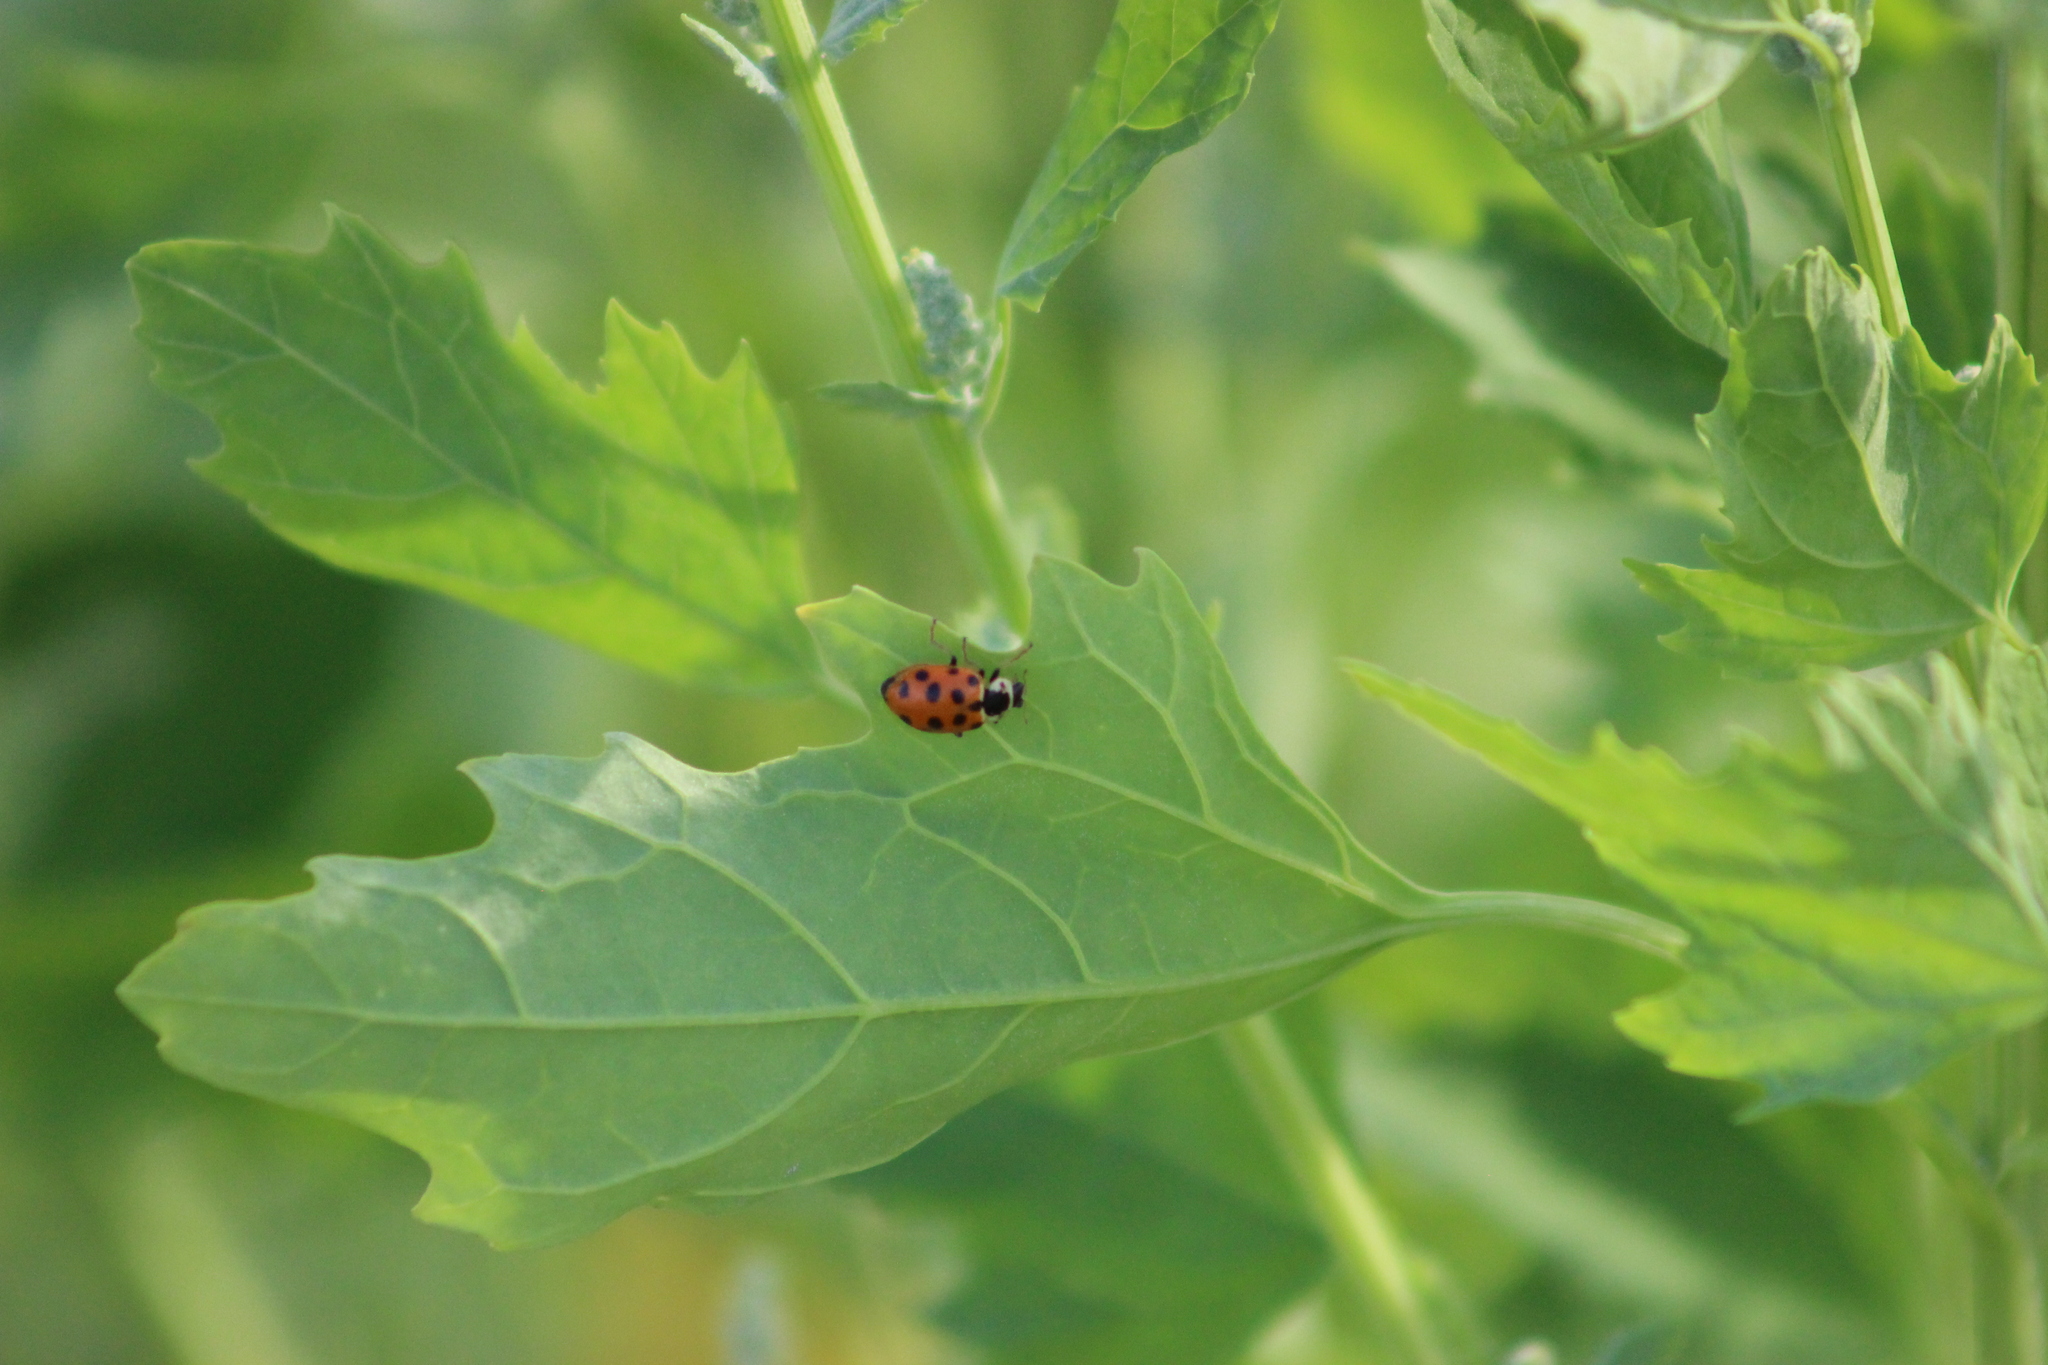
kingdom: Animalia
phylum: Arthropoda
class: Insecta
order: Coleoptera
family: Coccinellidae
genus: Hippodamia
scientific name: Hippodamia tredecimpunctata
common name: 13-spot ladybird
